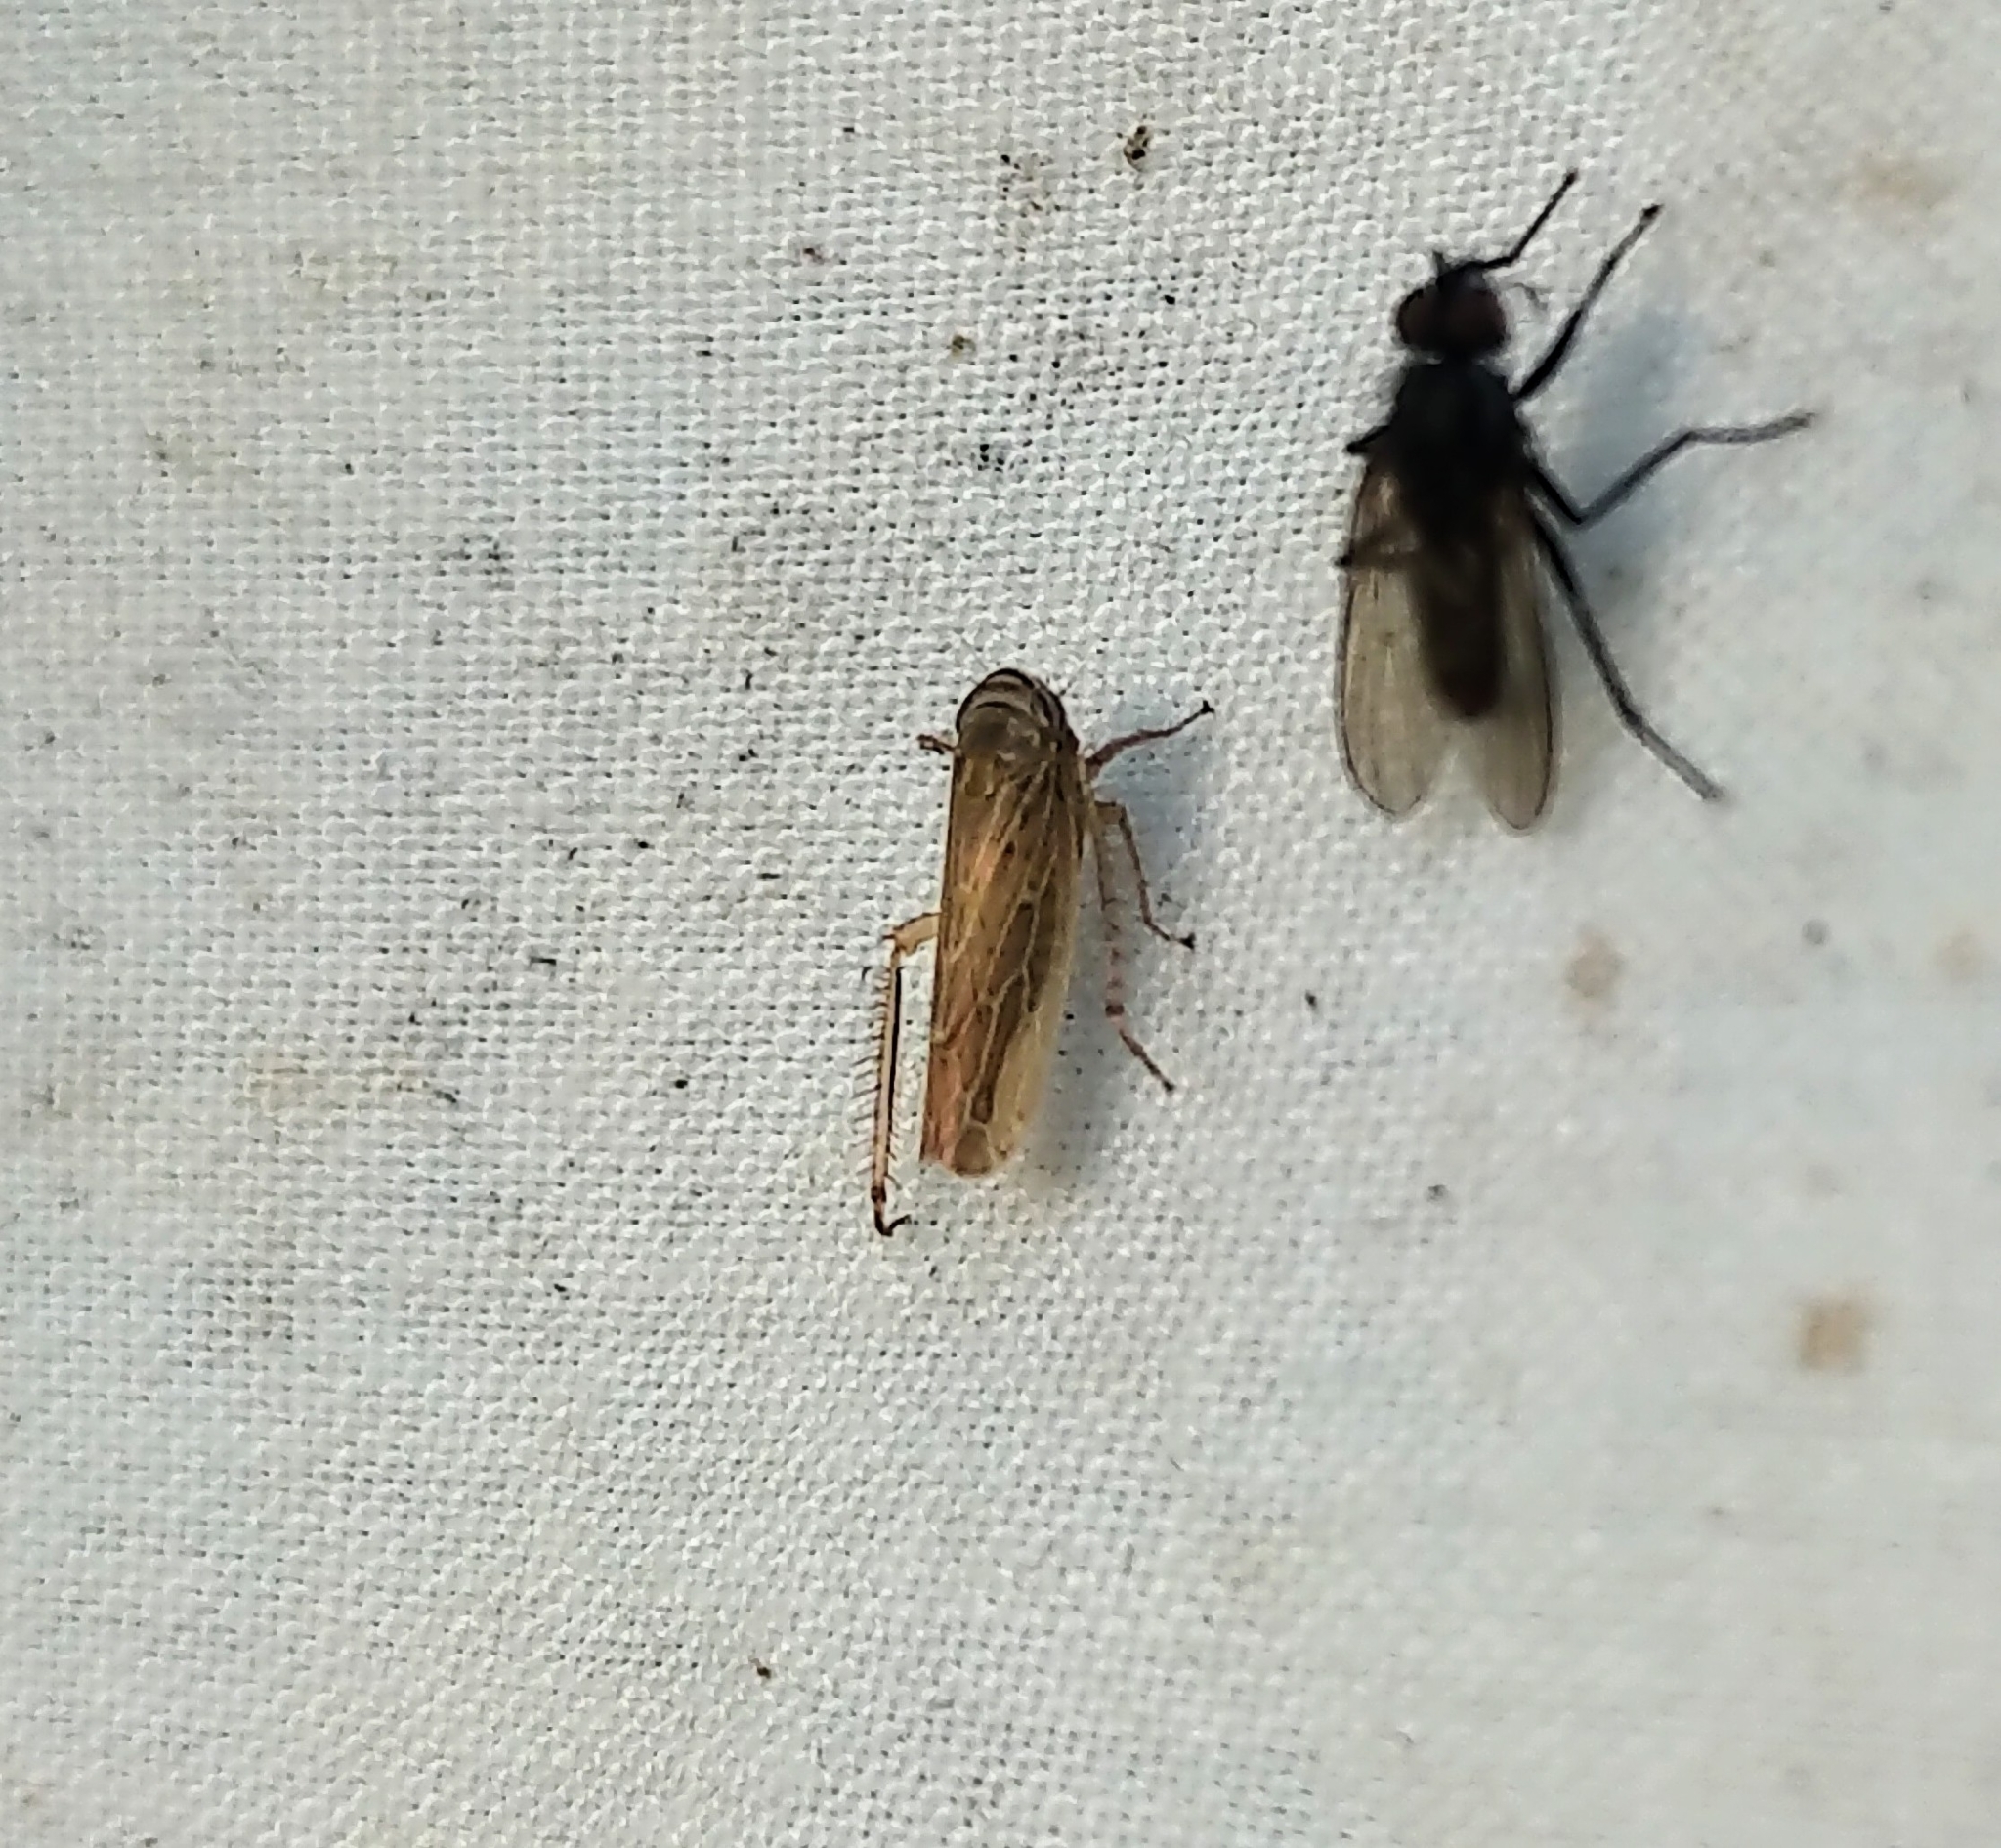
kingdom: Animalia
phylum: Arthropoda
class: Insecta
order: Hemiptera
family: Cicadellidae
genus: Paramesus
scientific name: Paramesus major
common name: Leafhopper
